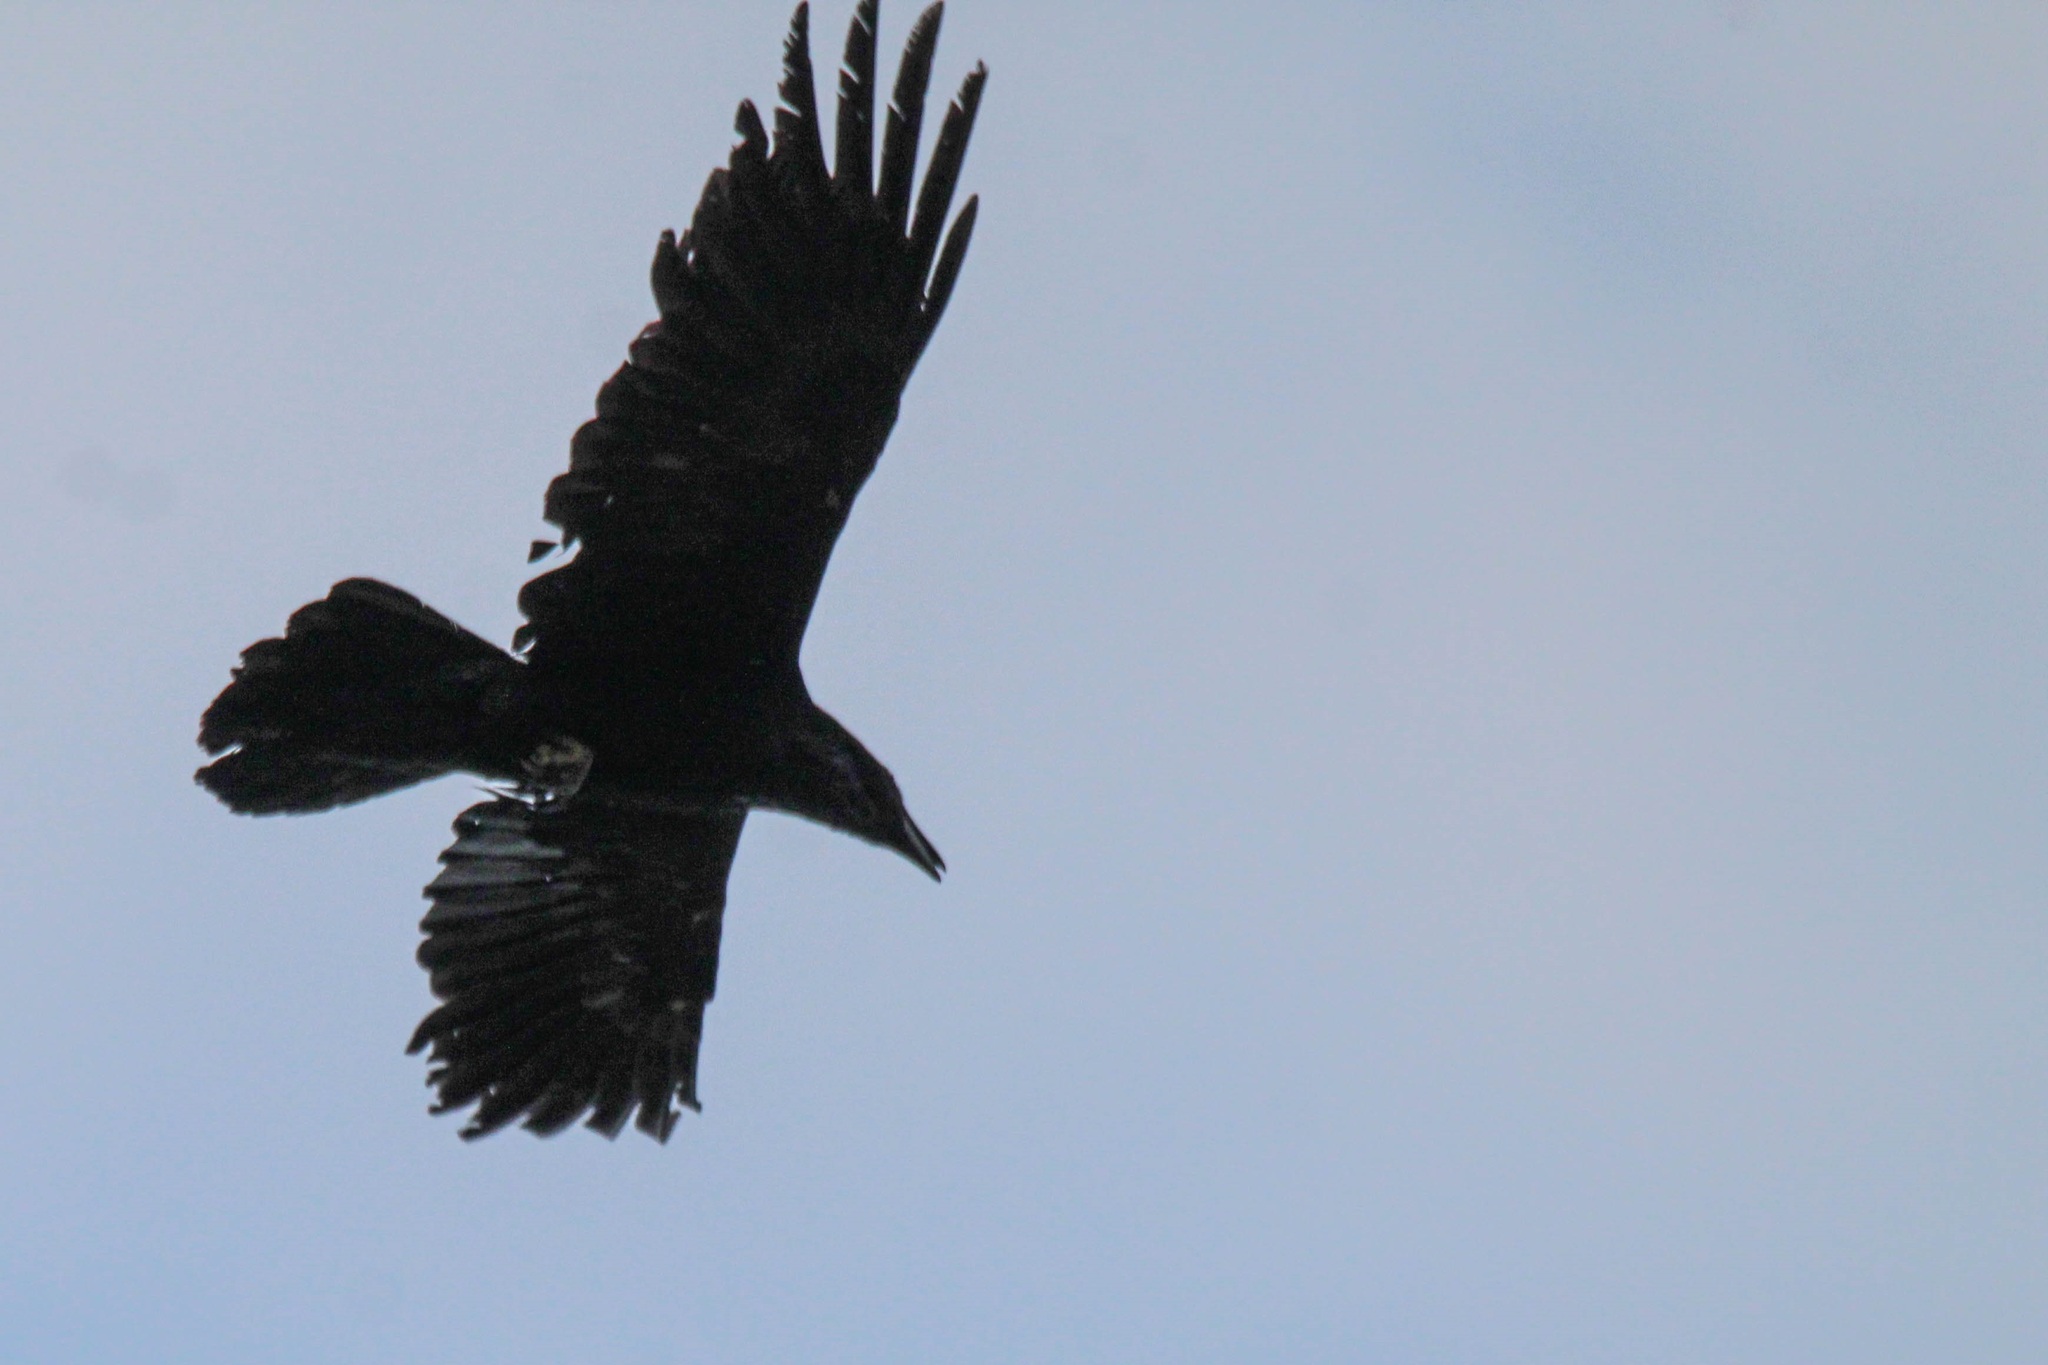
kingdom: Animalia
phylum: Chordata
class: Aves
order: Passeriformes
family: Corvidae
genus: Corvus
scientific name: Corvus corax
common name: Common raven
